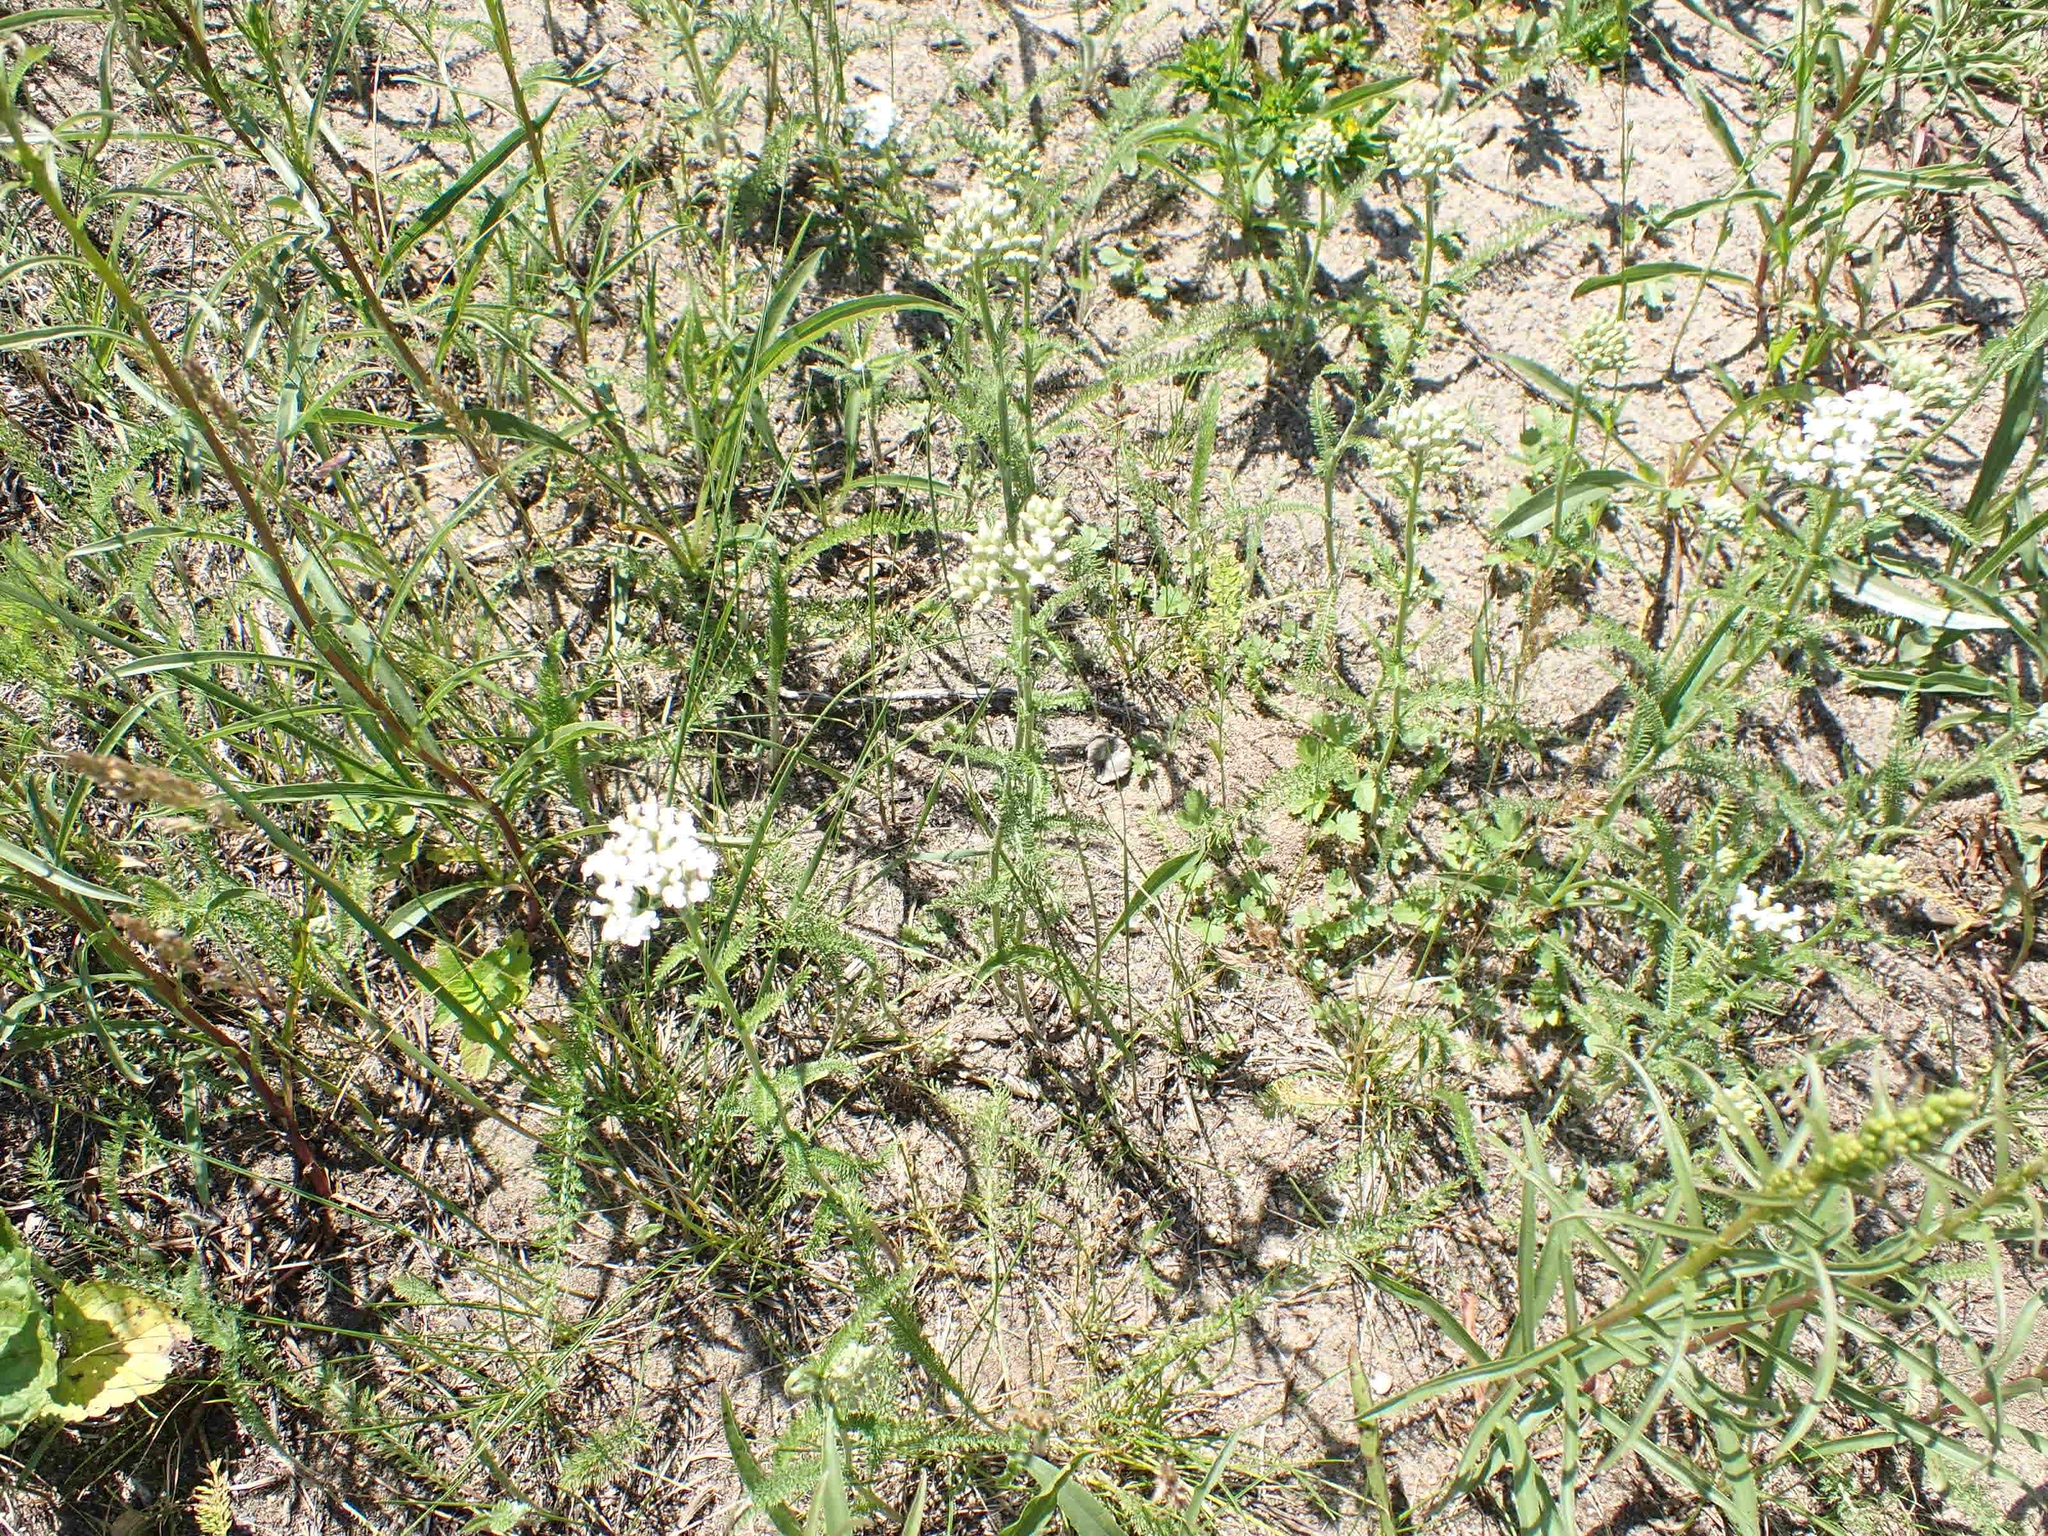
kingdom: Plantae
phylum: Tracheophyta
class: Magnoliopsida
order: Asterales
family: Asteraceae
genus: Achillea
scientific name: Achillea millefolium
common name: Yarrow
